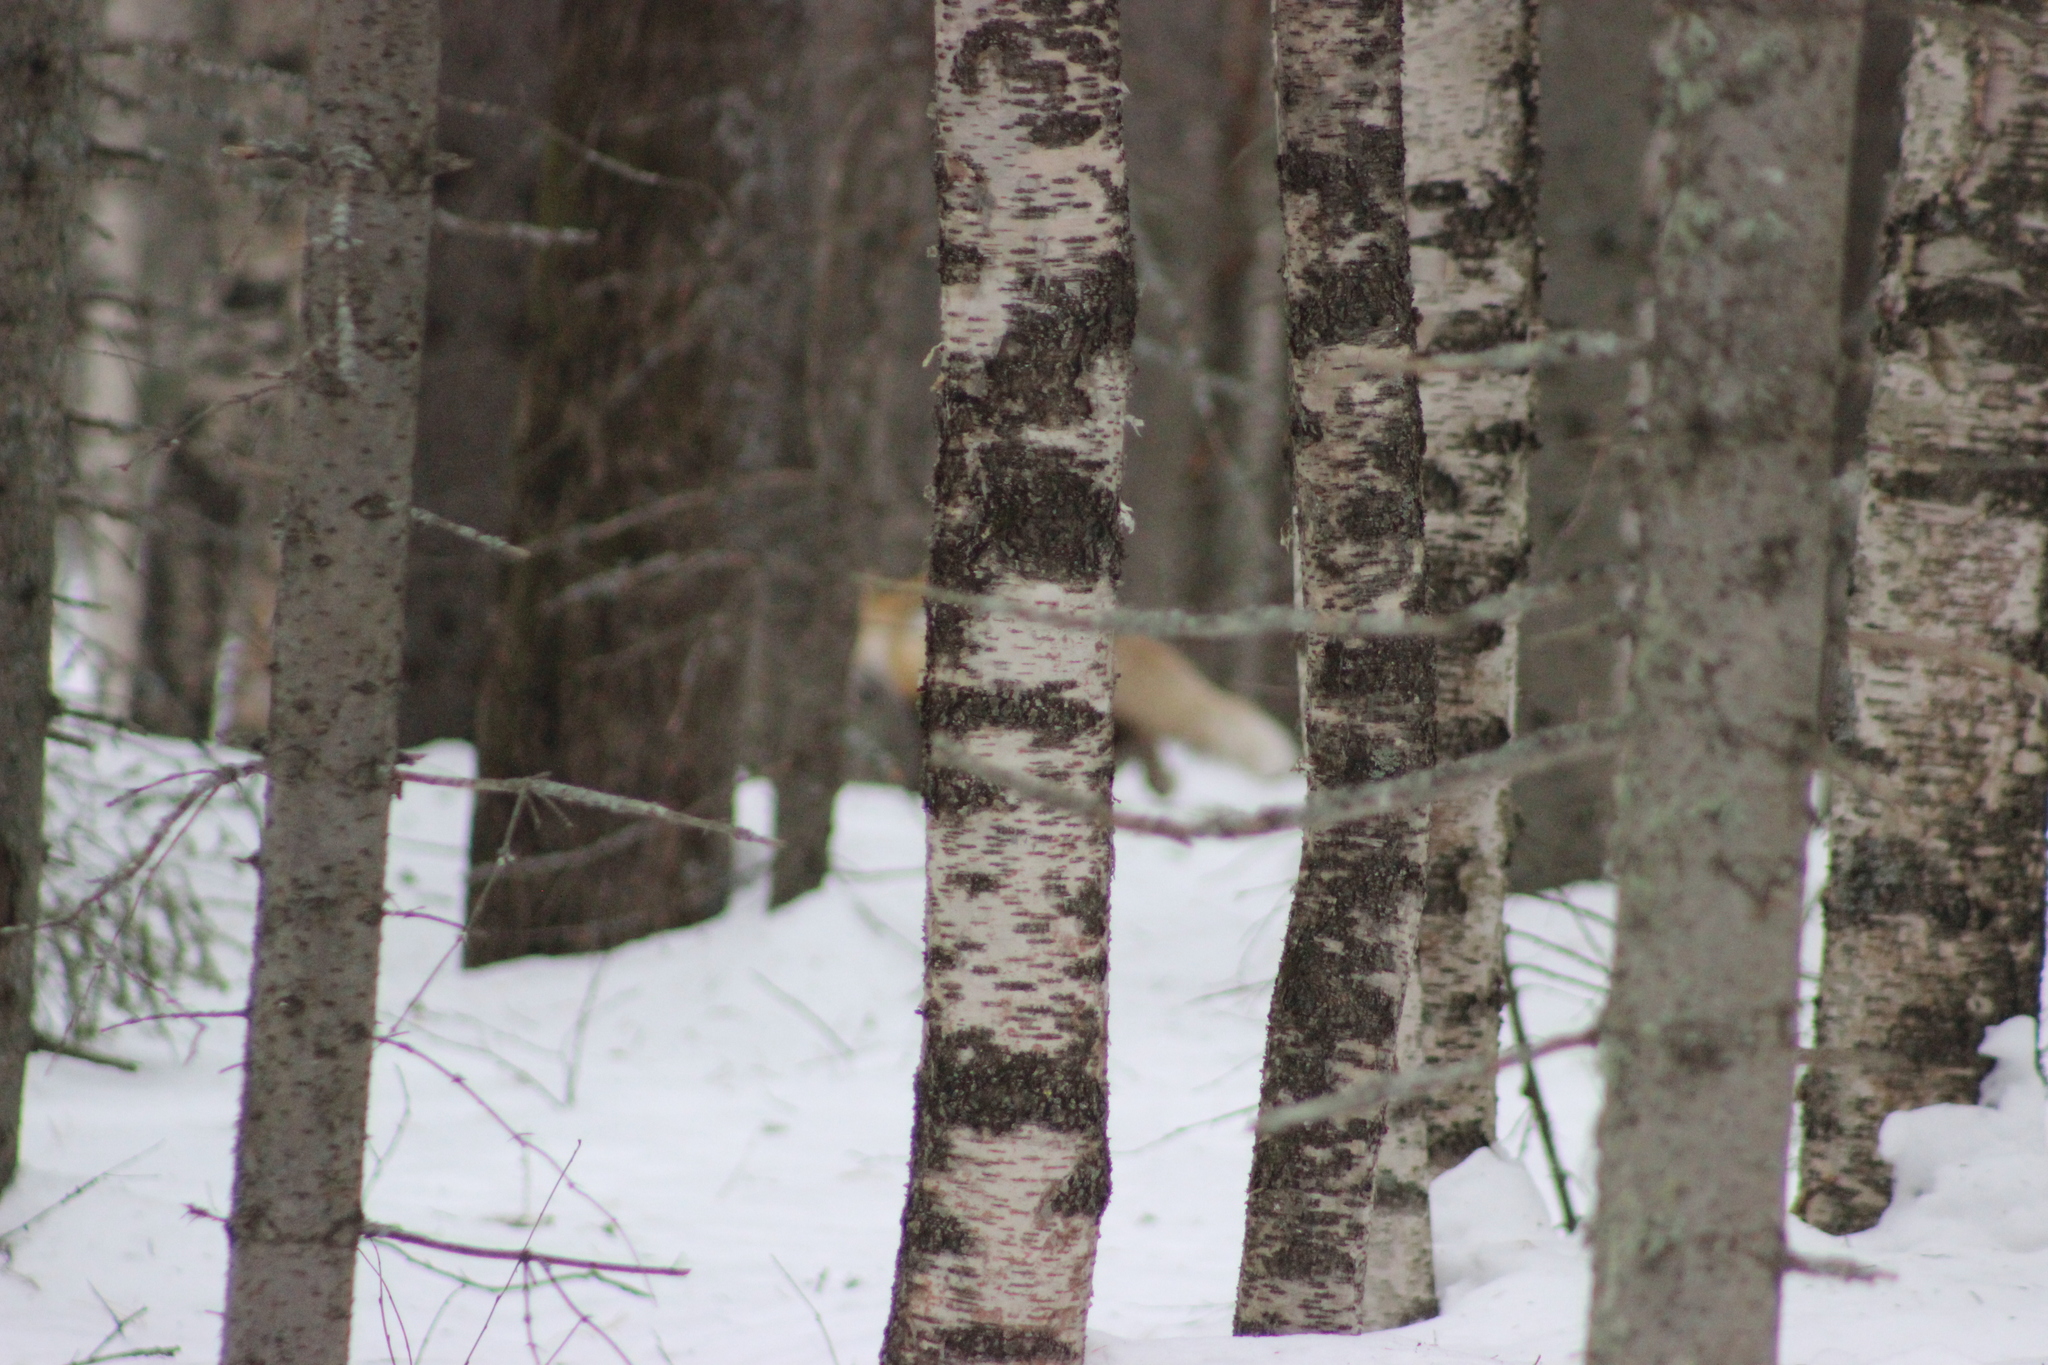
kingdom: Animalia
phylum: Chordata
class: Mammalia
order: Carnivora
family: Canidae
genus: Vulpes
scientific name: Vulpes vulpes
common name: Red fox
